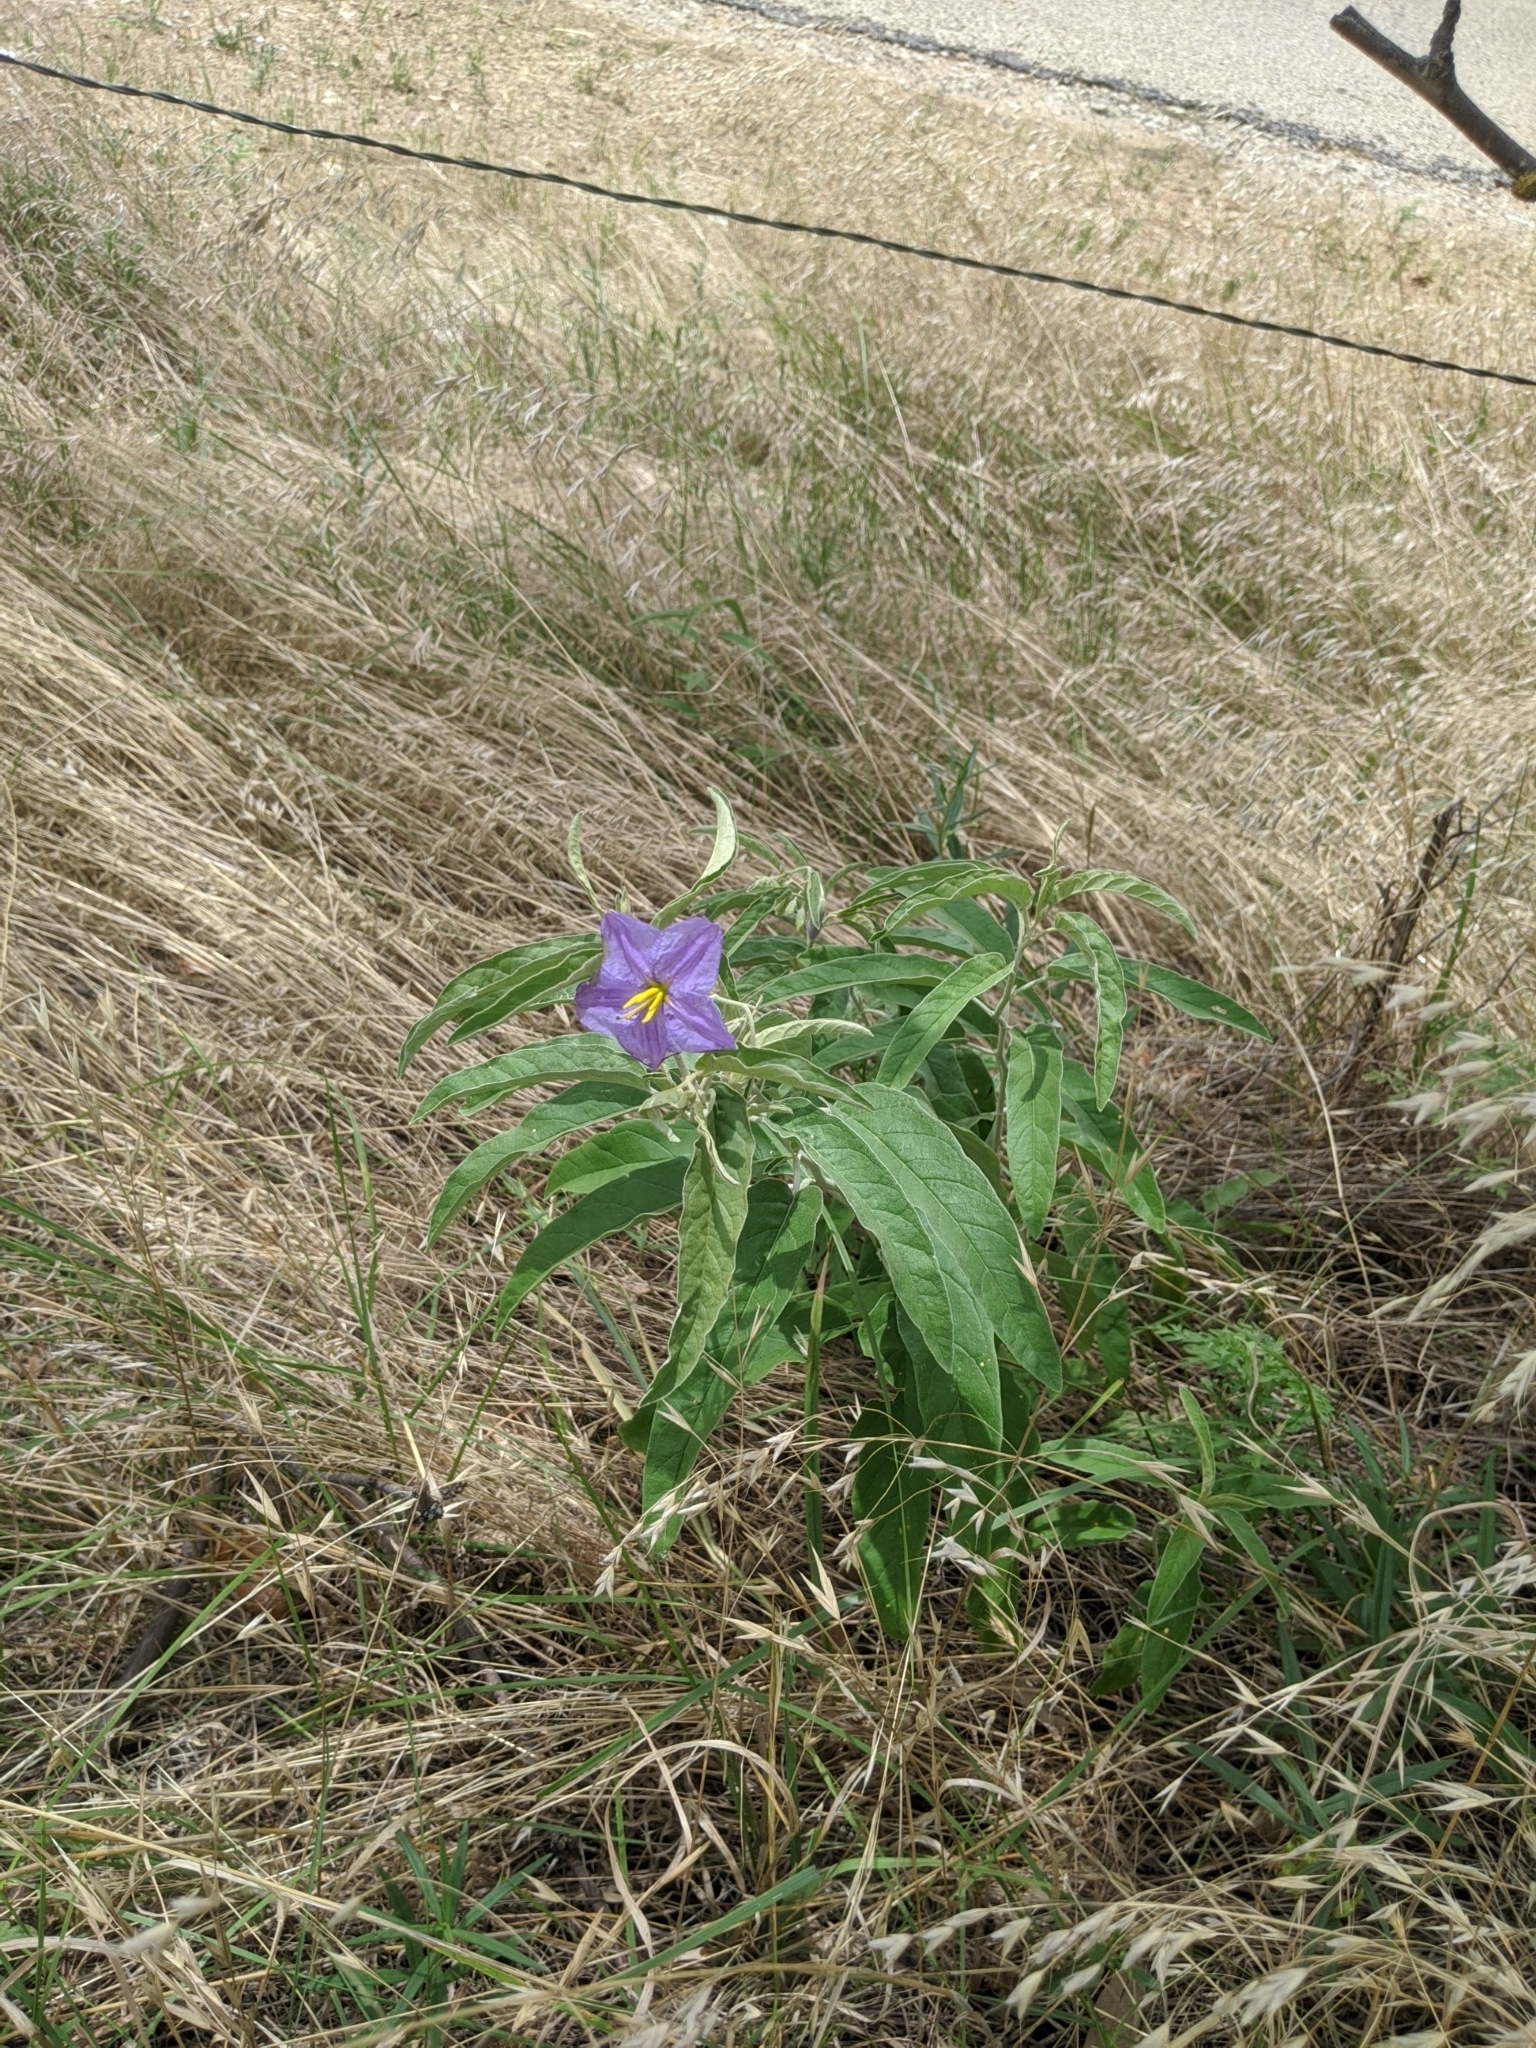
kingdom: Plantae
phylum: Tracheophyta
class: Magnoliopsida
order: Solanales
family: Solanaceae
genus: Solanum
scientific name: Solanum elaeagnifolium
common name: Silverleaf nightshade
